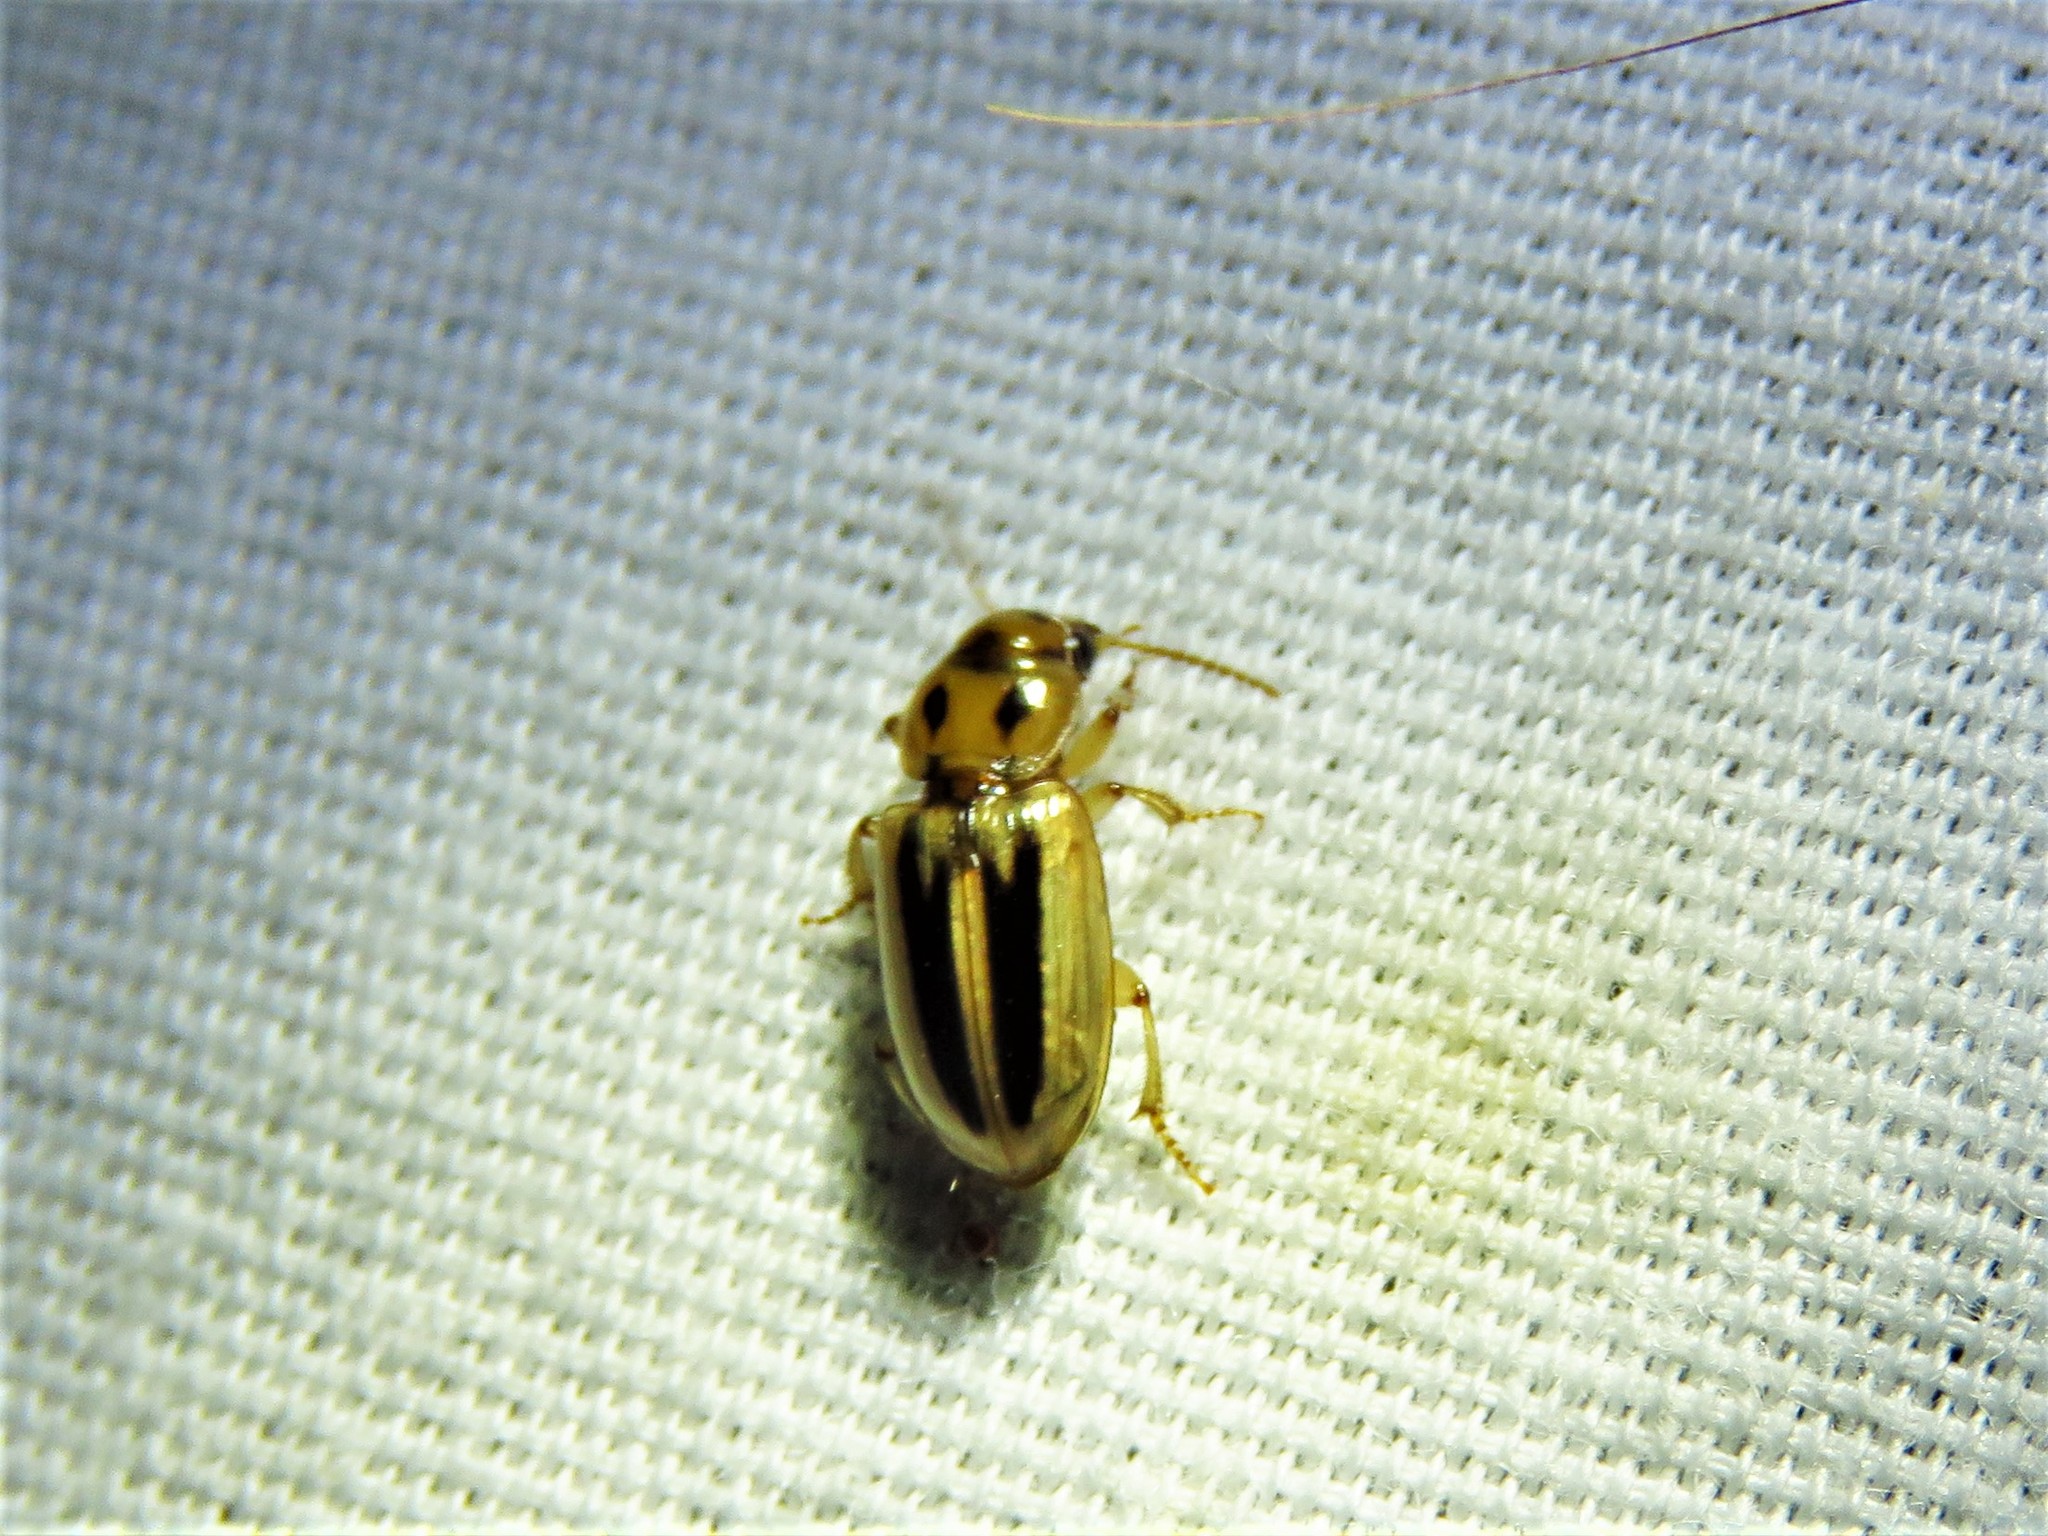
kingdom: Animalia
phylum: Arthropoda
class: Insecta
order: Coleoptera
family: Carabidae
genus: Stenolophus
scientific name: Stenolophus lineola
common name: Lined stenolophus
